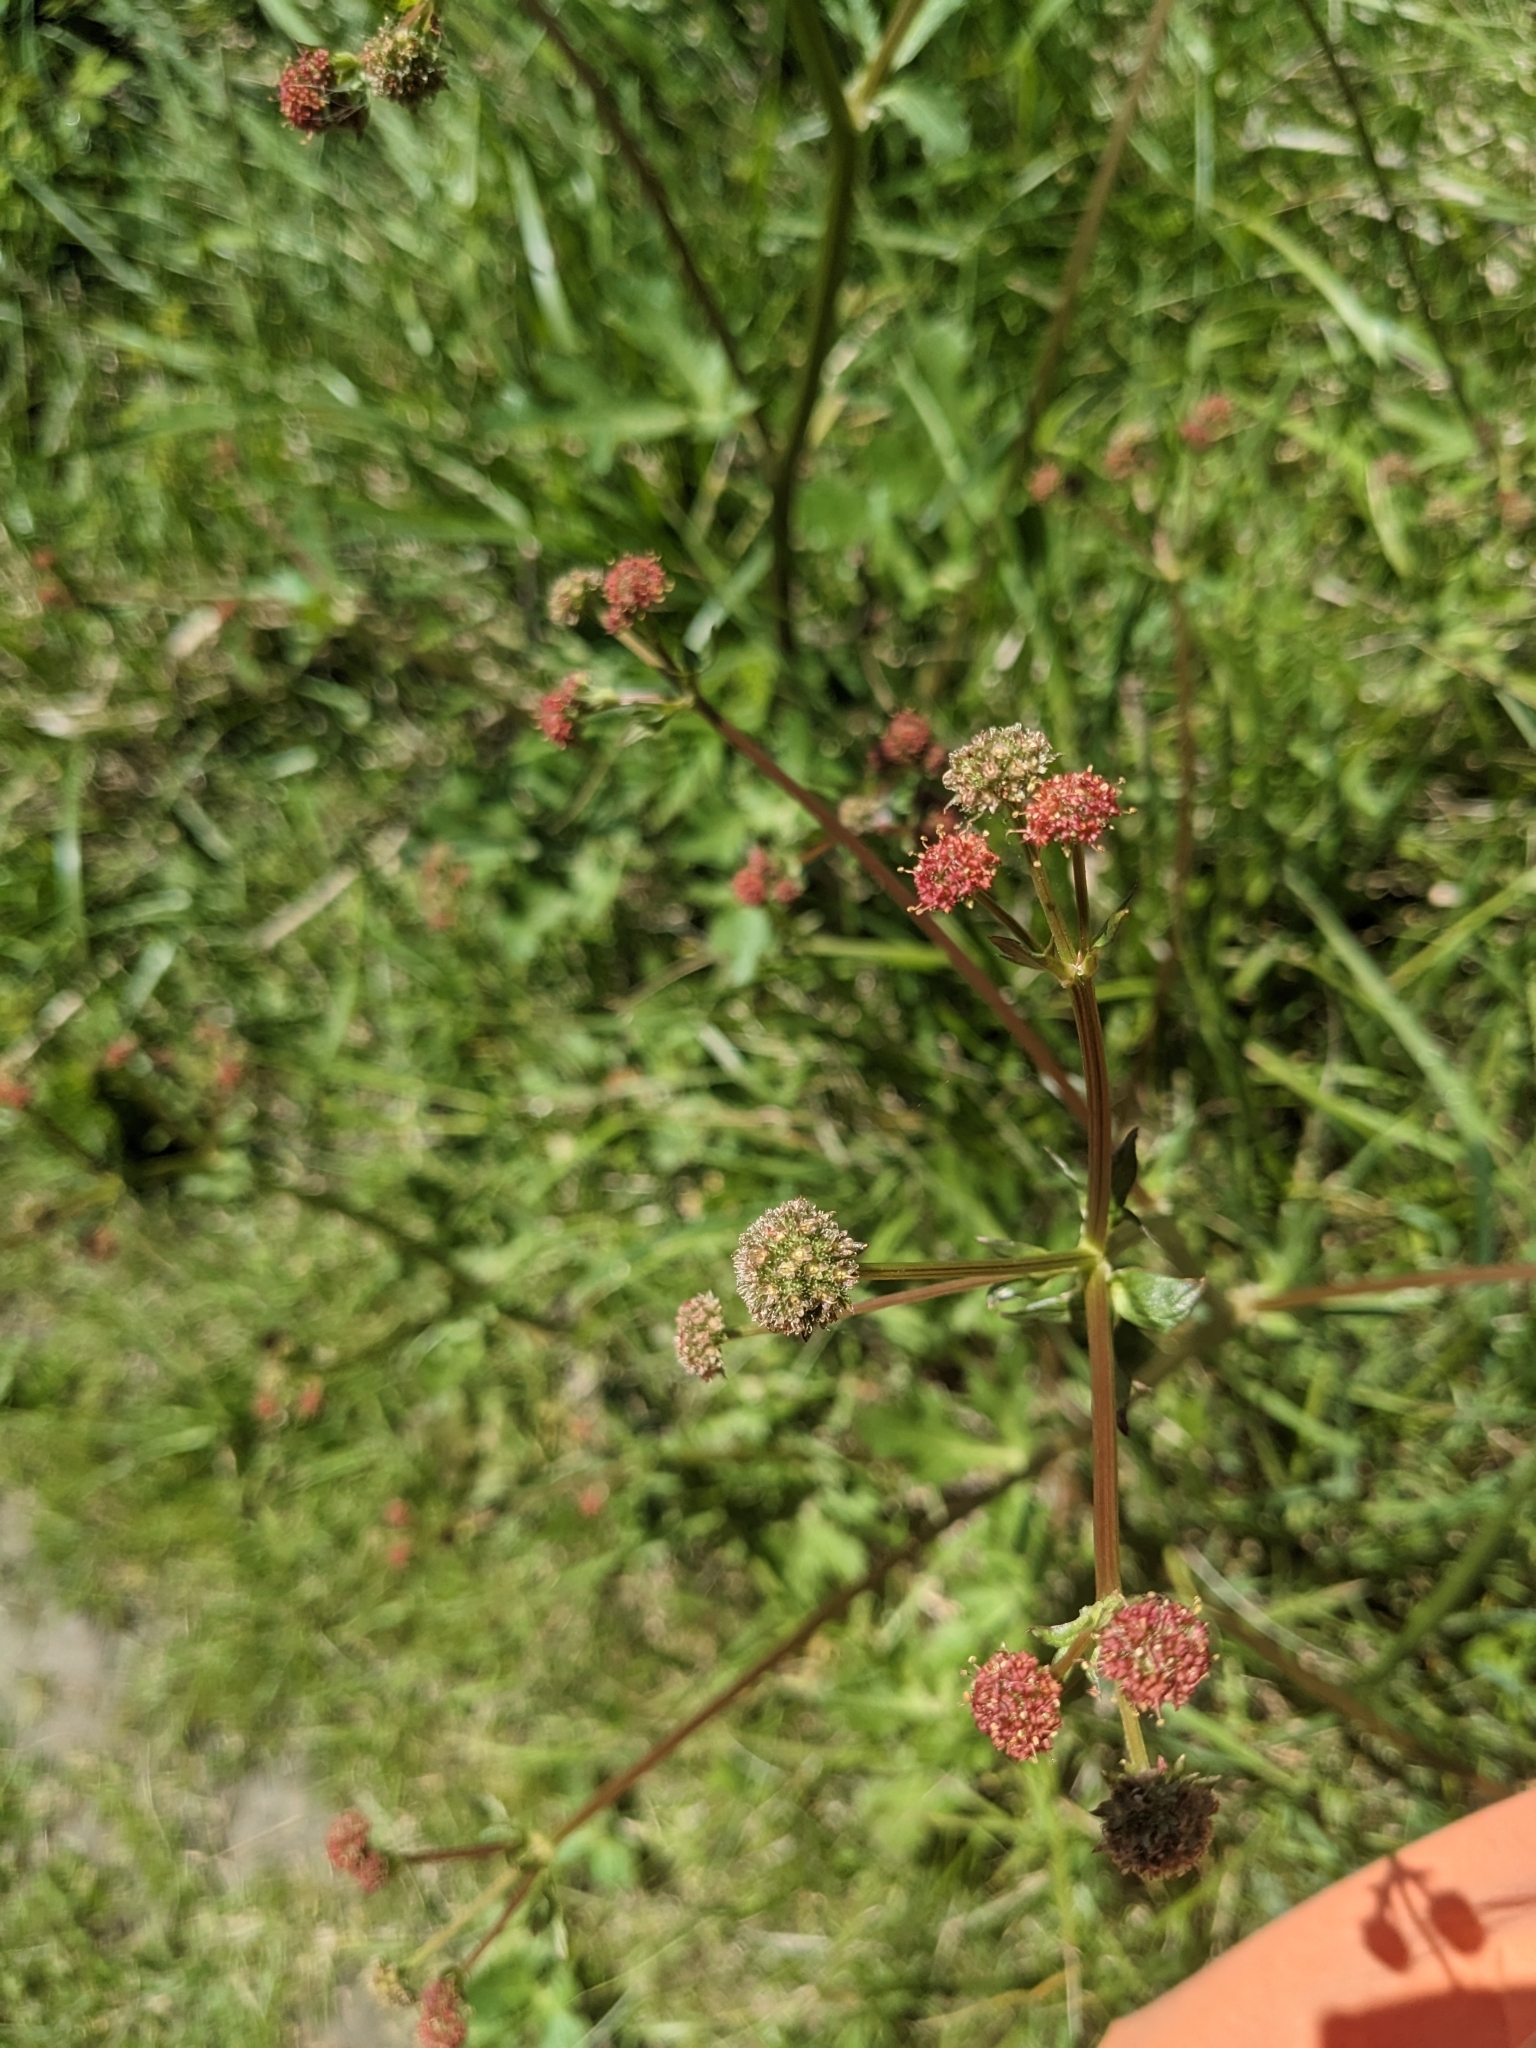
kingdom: Plantae
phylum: Tracheophyta
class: Magnoliopsida
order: Apiales
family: Apiaceae
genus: Sanicula
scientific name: Sanicula bipinnatifida
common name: Shoe-buttons
